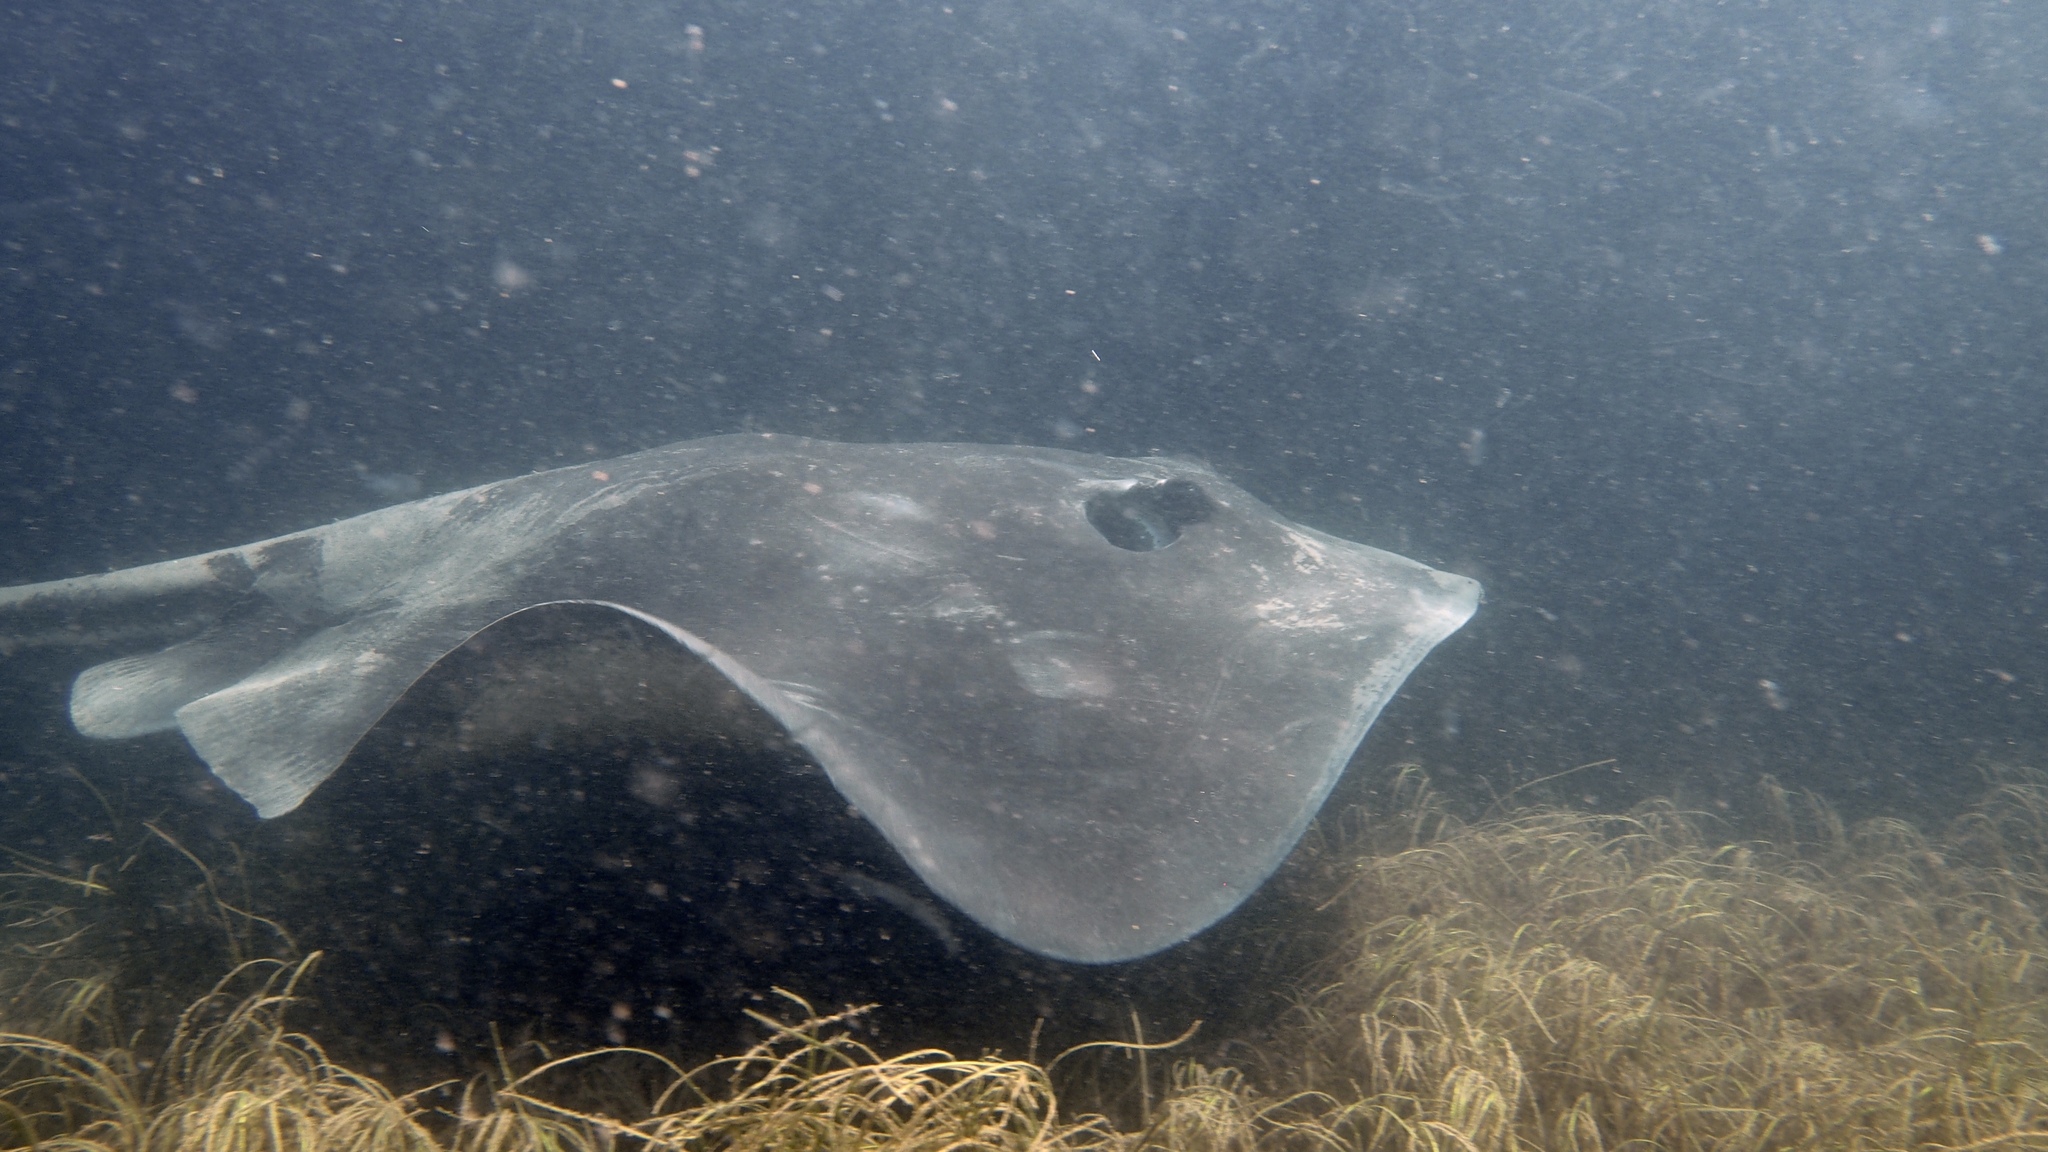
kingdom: Animalia
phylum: Chordata
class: Elasmobranchii
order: Myliobatiformes
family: Dasyatidae
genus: Bathytoshia
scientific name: Bathytoshia brevicaudata
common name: Short-tail stingray
